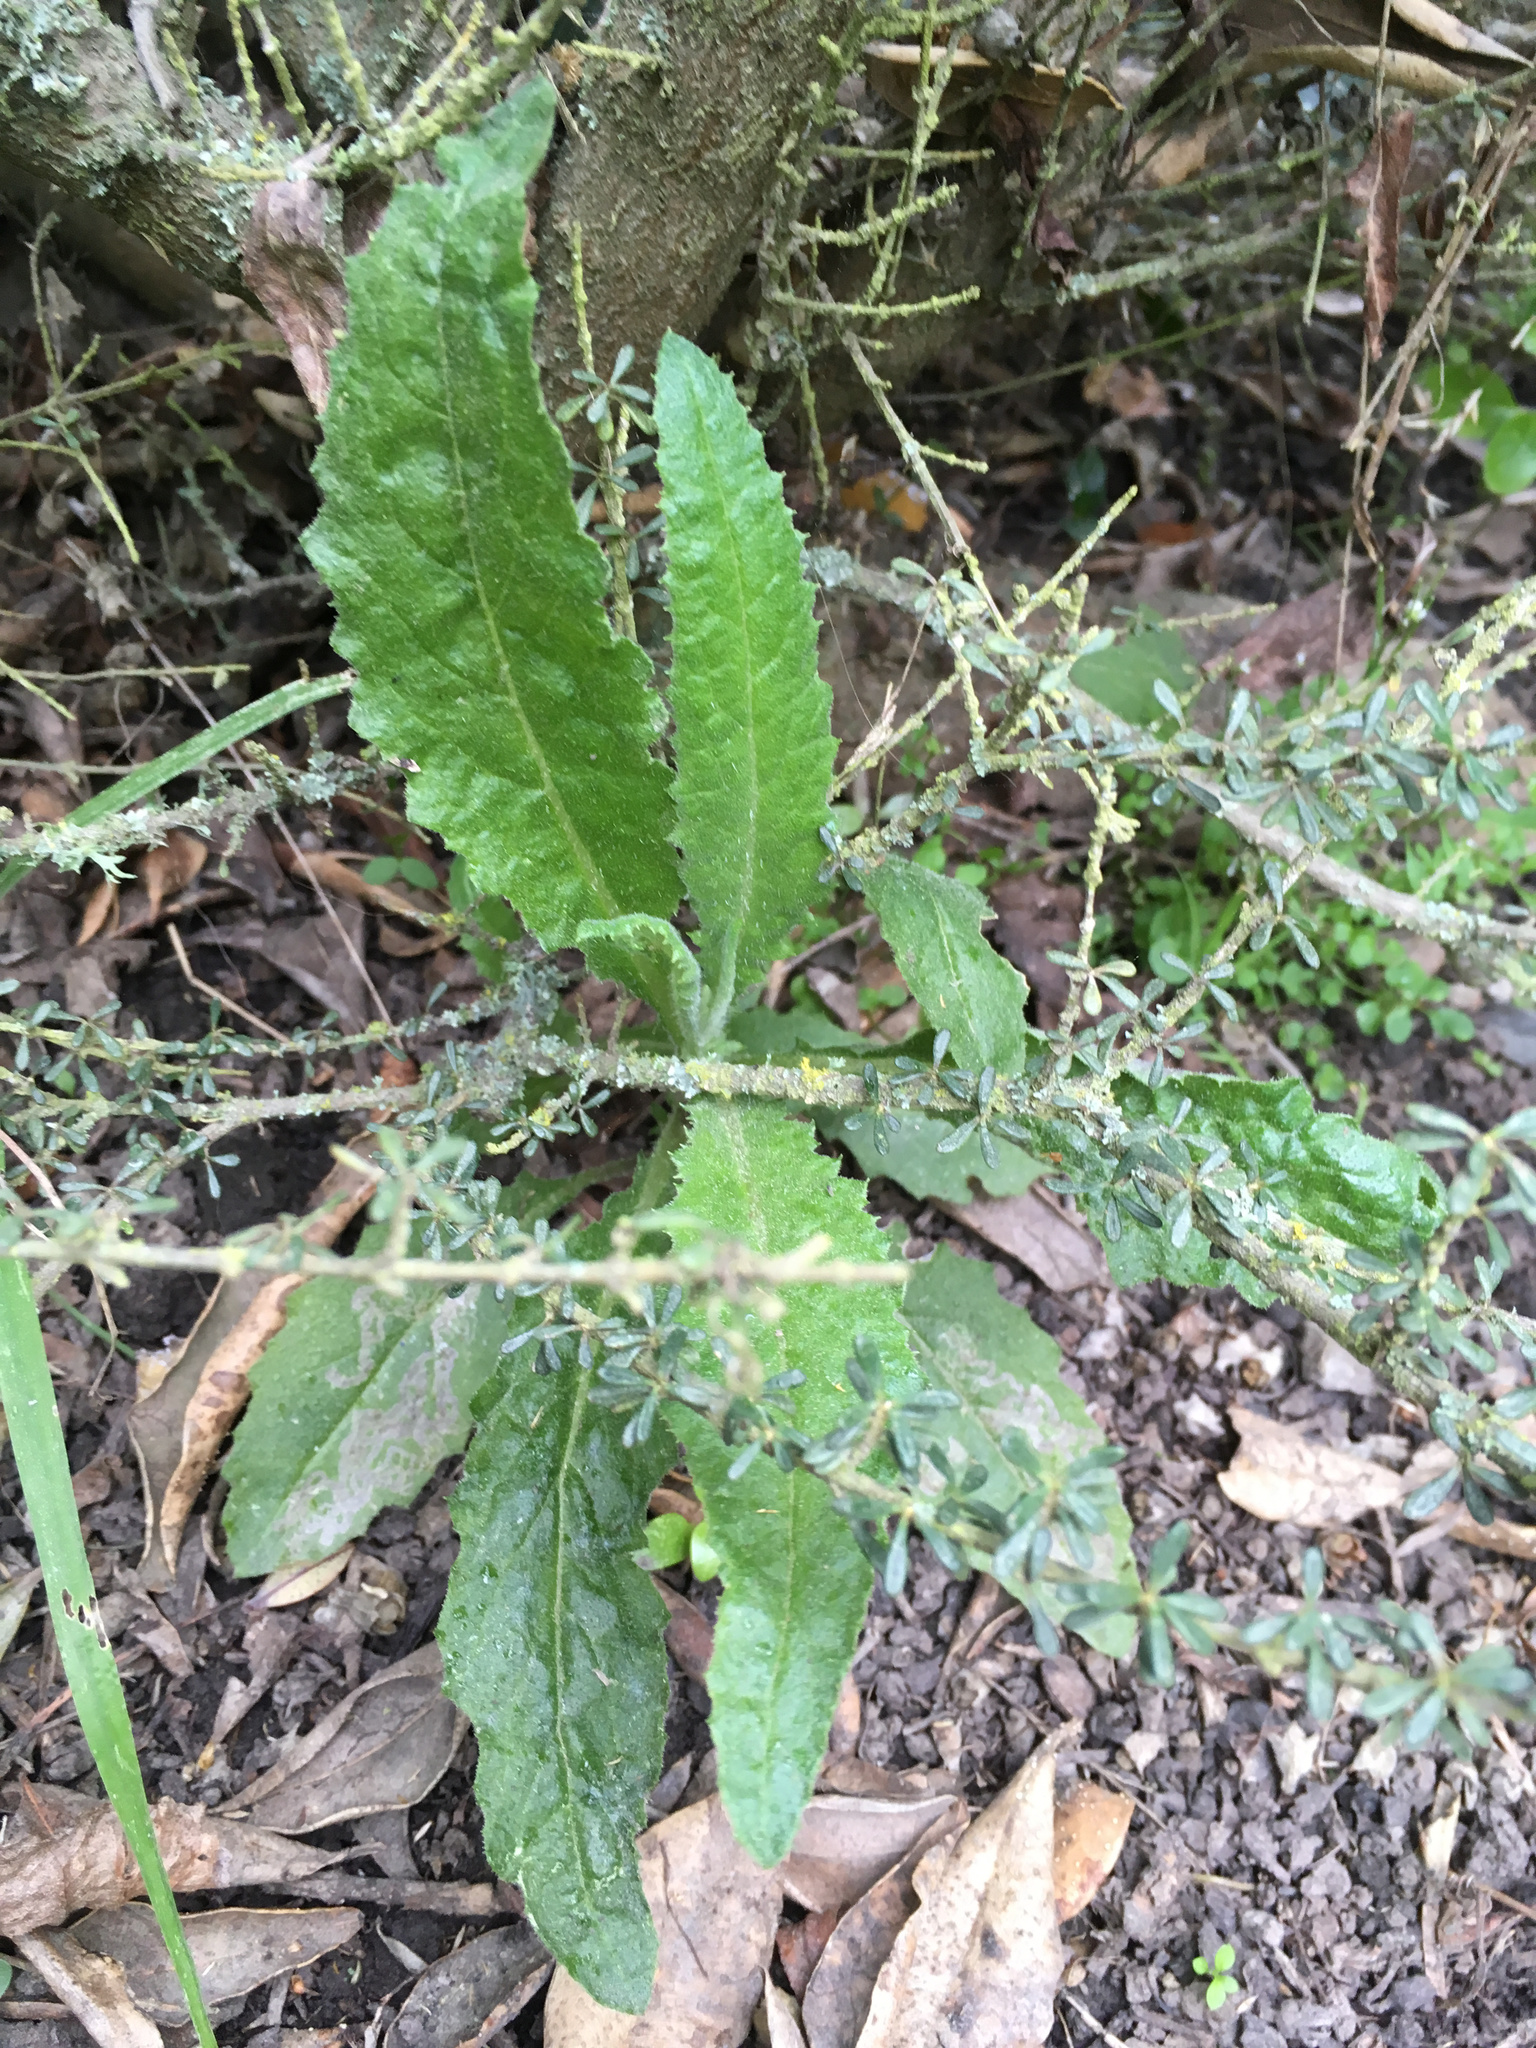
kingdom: Plantae
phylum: Tracheophyta
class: Magnoliopsida
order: Asterales
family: Asteraceae
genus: Senecio
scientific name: Senecio minimus
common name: Toothed fireweed
